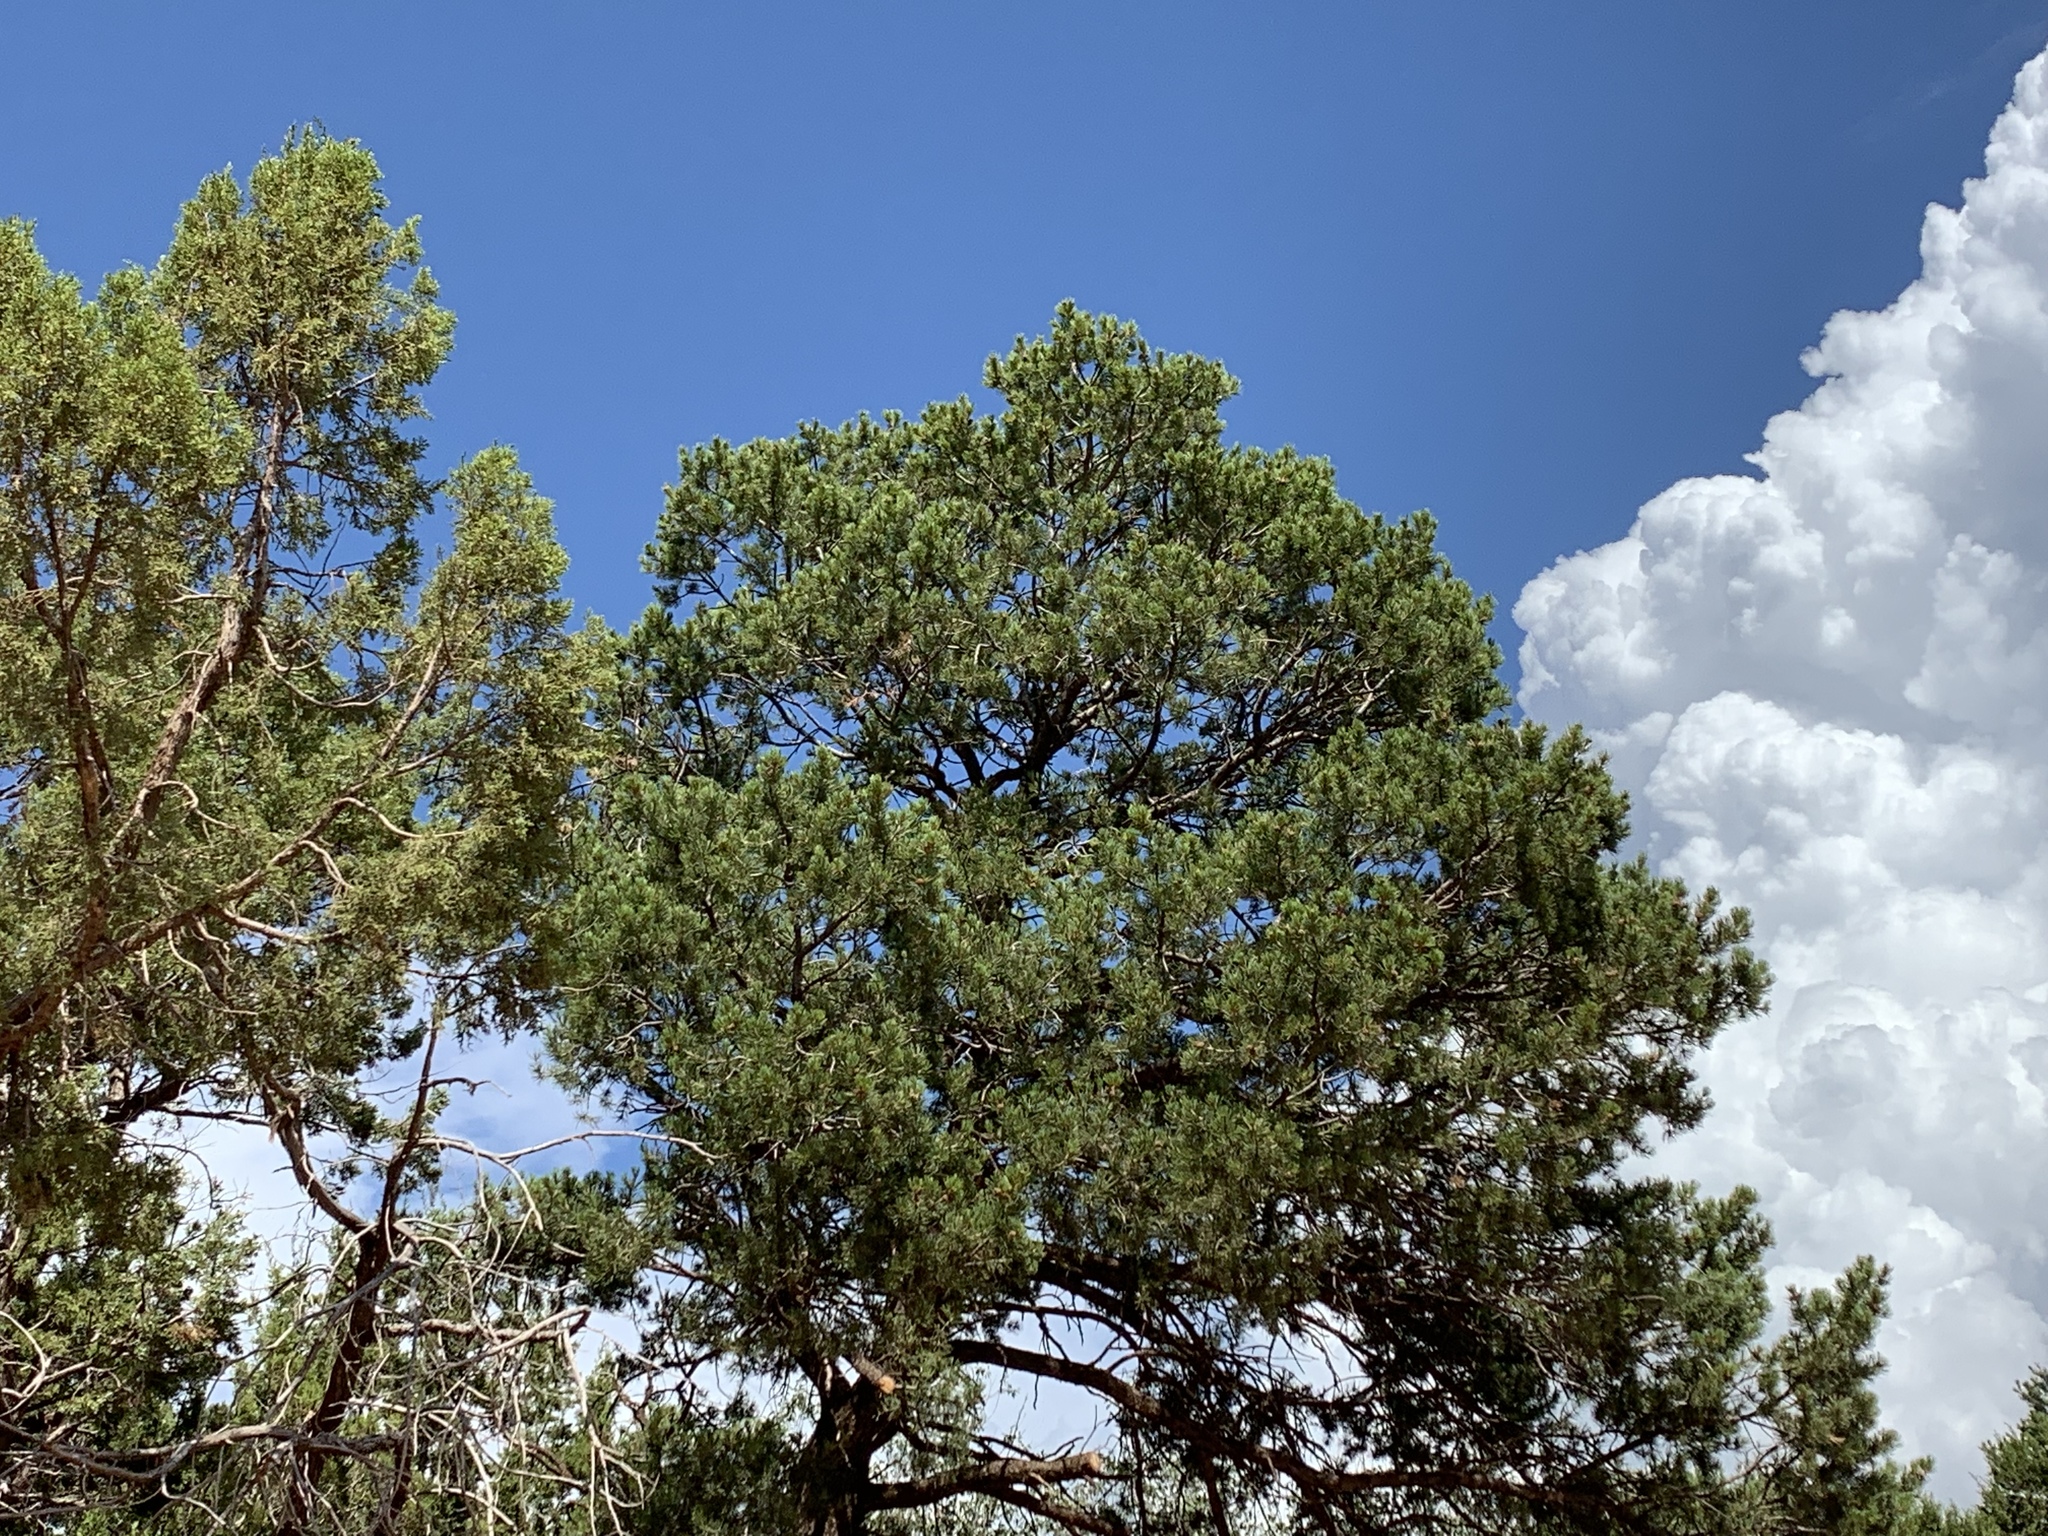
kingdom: Plantae
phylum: Tracheophyta
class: Pinopsida
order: Pinales
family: Pinaceae
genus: Pinus
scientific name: Pinus edulis
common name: Colorado pinyon
